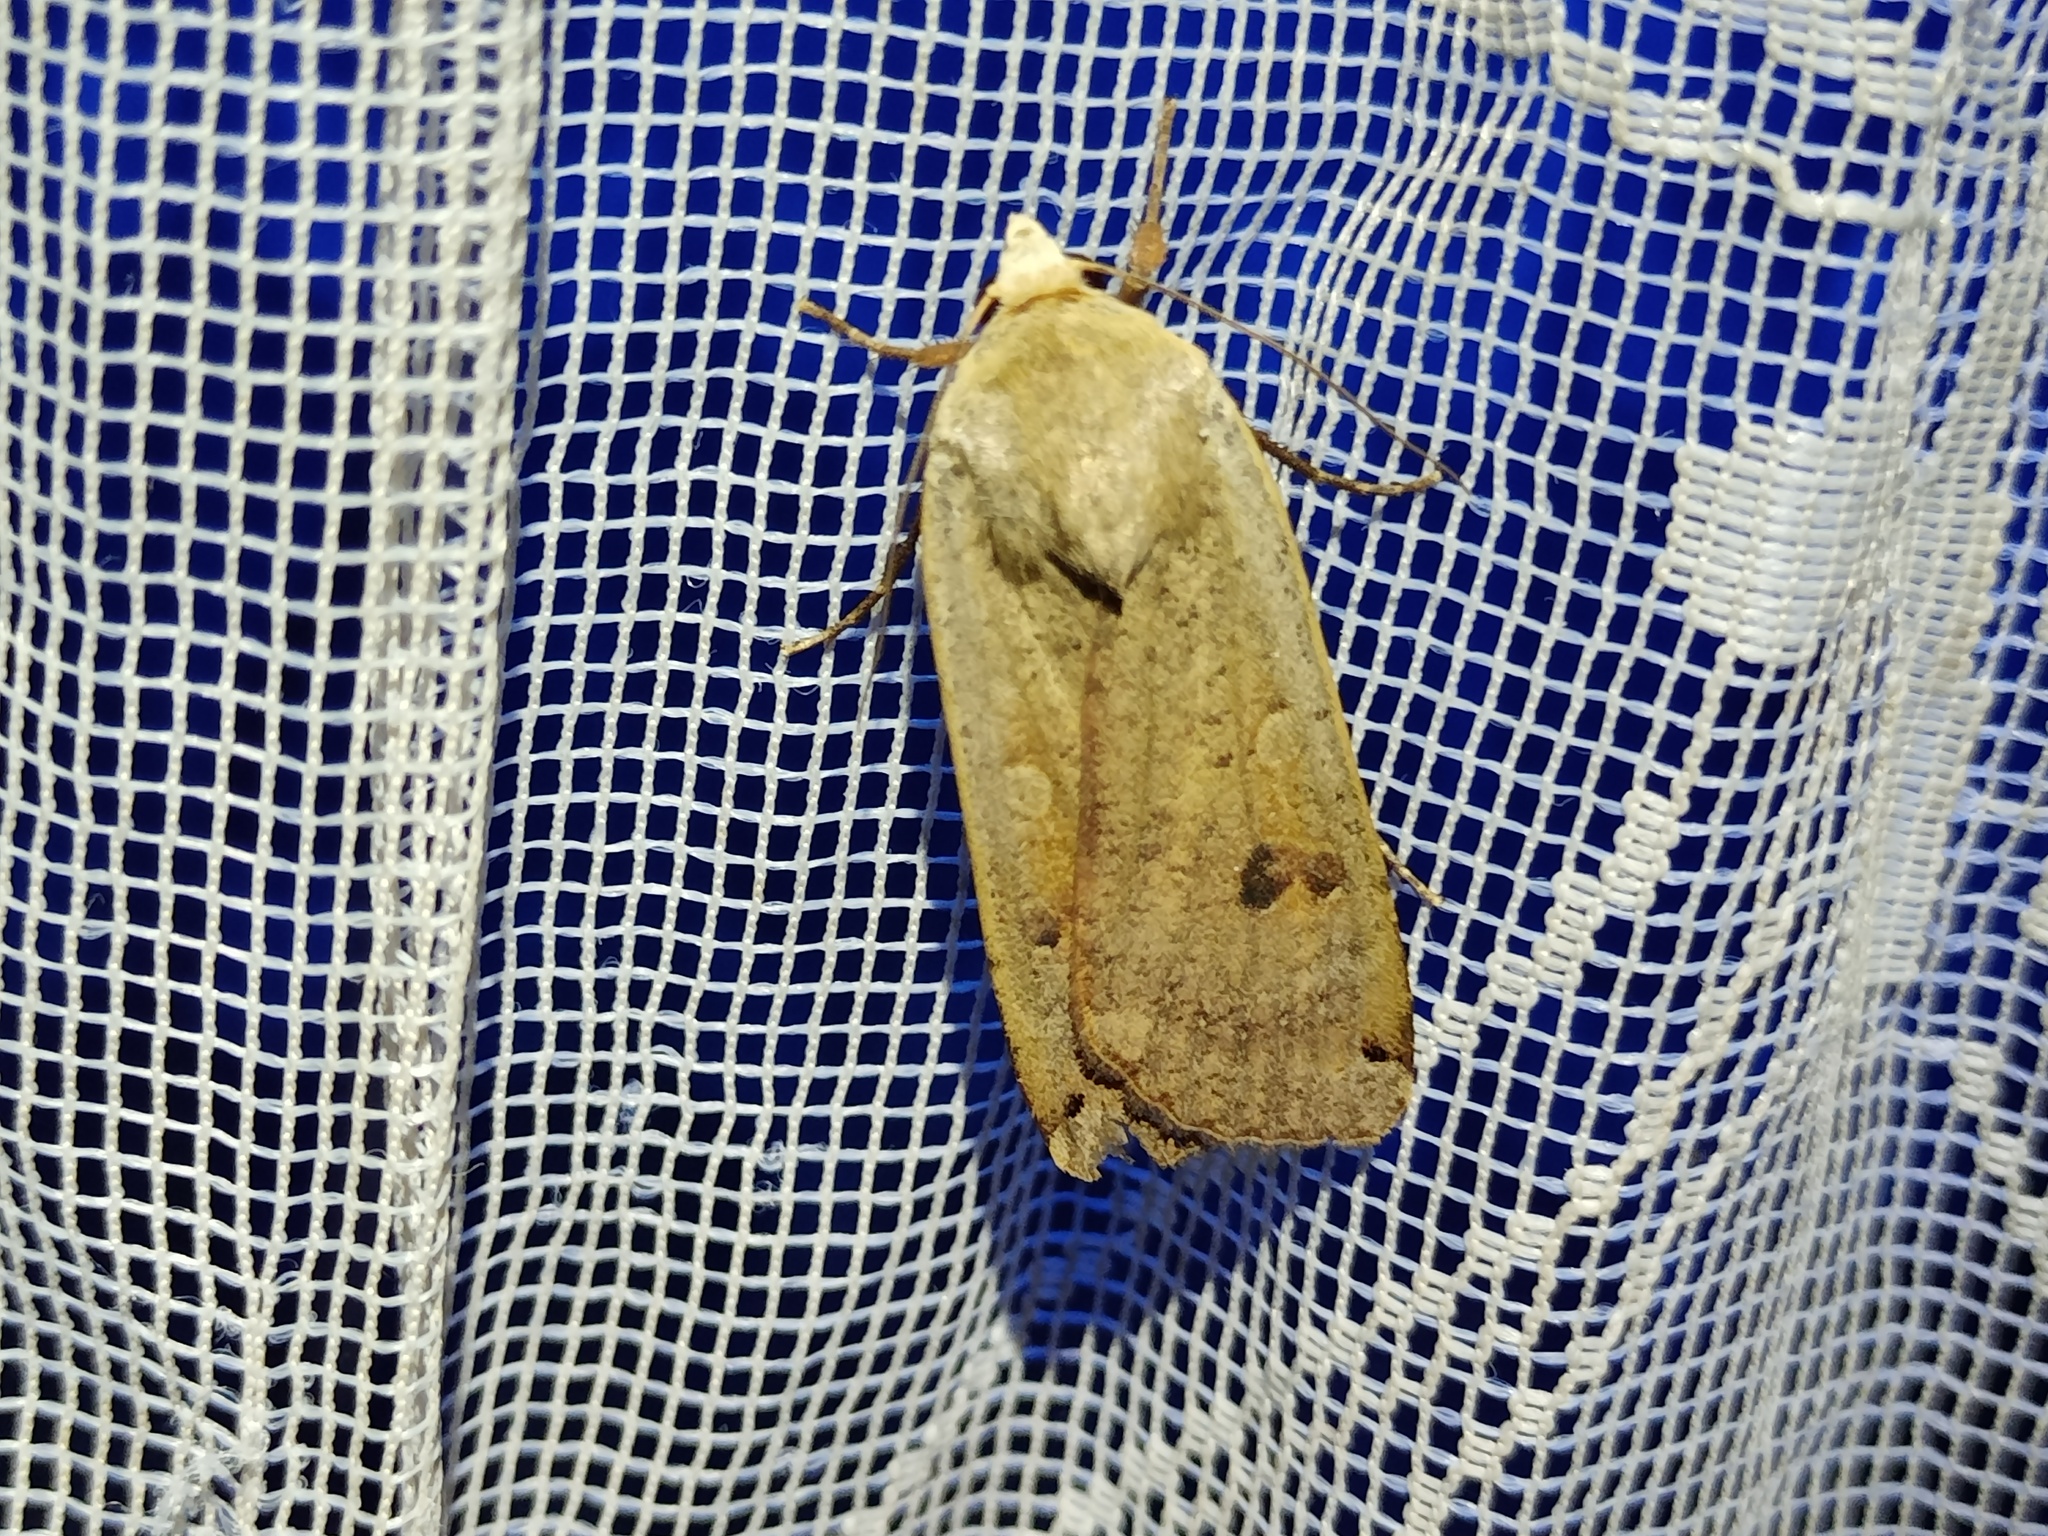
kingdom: Animalia
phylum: Arthropoda
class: Insecta
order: Lepidoptera
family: Noctuidae
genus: Noctua
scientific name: Noctua pronuba
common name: Large yellow underwing
